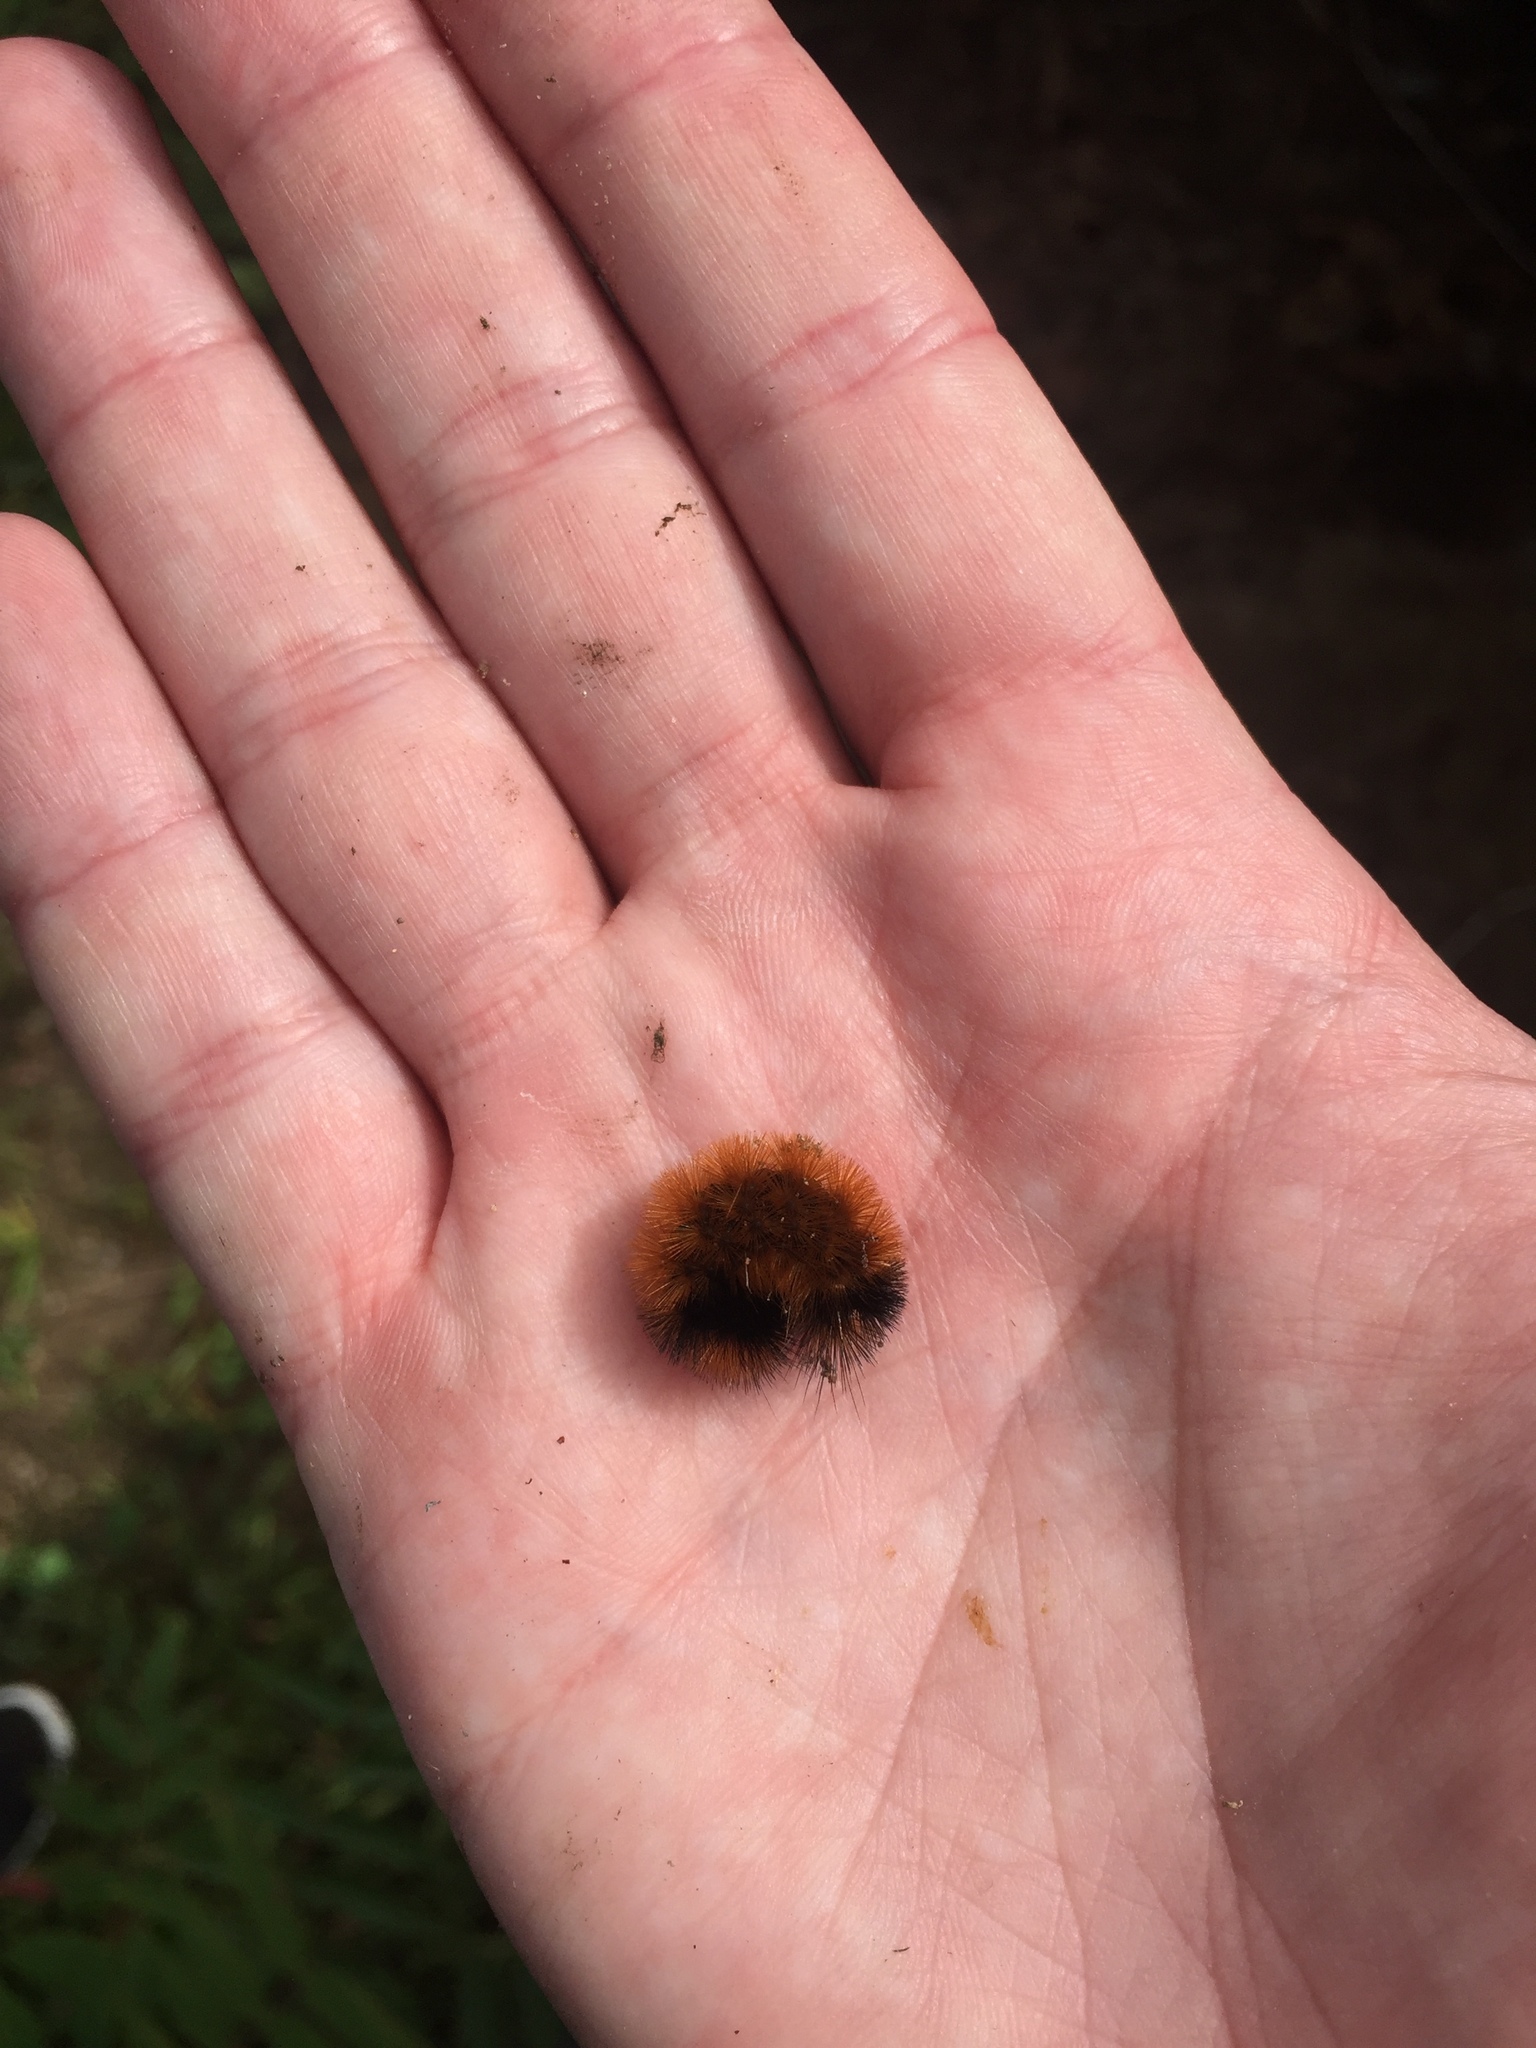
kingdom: Animalia
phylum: Arthropoda
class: Insecta
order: Lepidoptera
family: Erebidae
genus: Pyrrharctia
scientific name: Pyrrharctia isabella
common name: Isabella tiger moth
